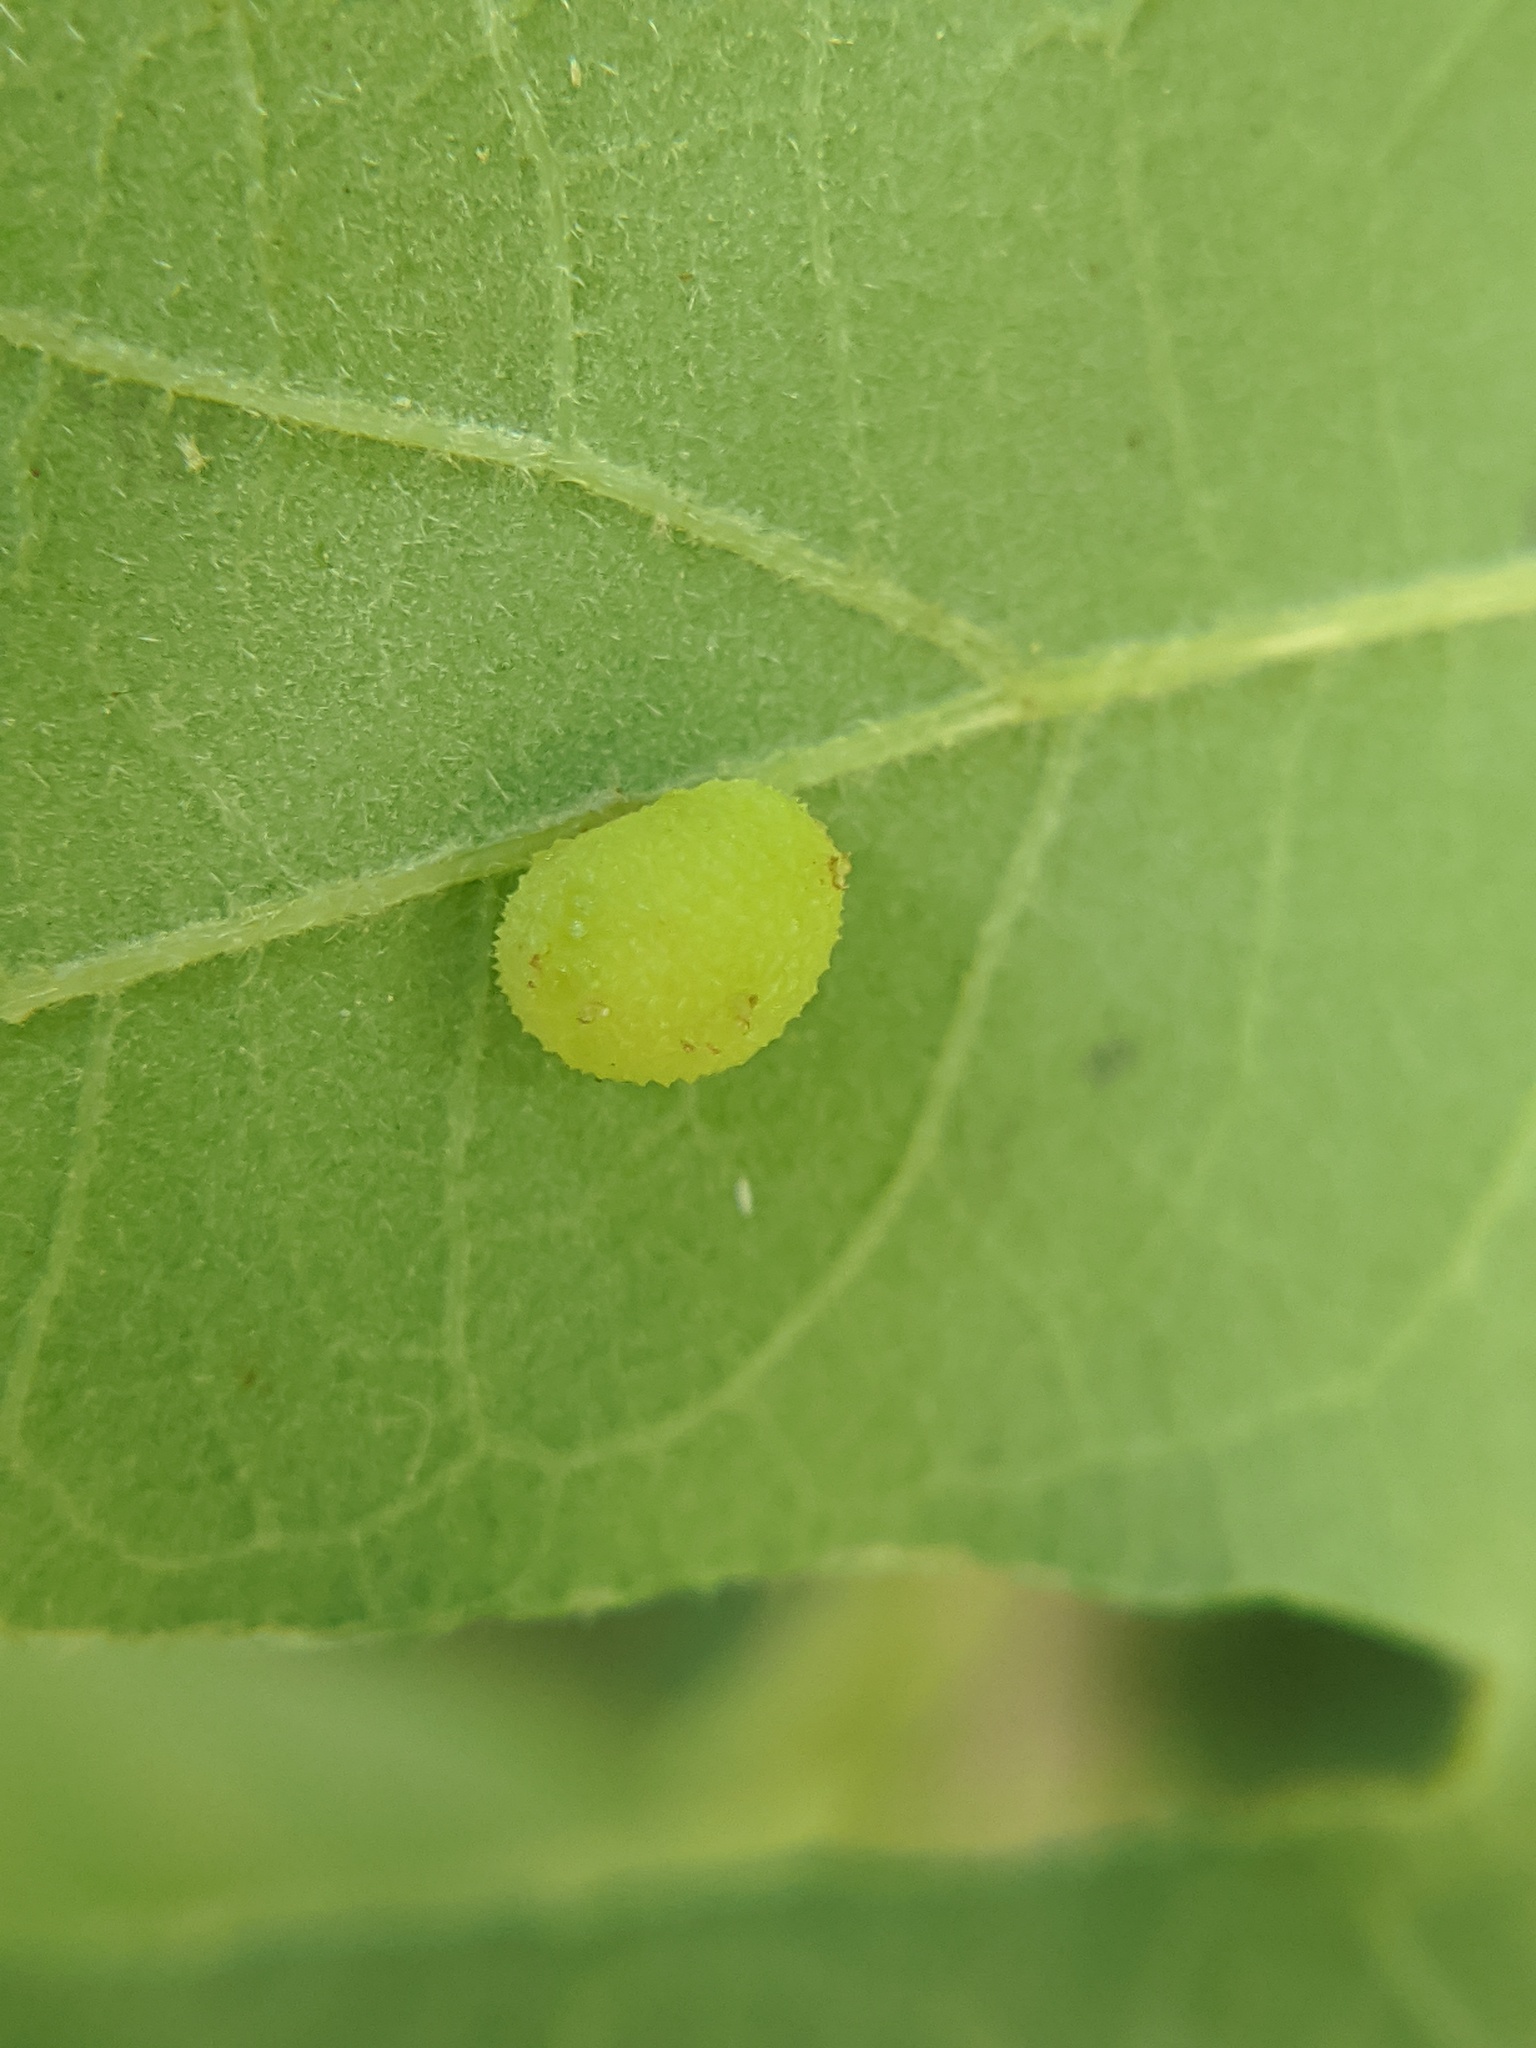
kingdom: Animalia
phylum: Arthropoda
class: Insecta
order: Hymenoptera
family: Cynipidae
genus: Acraspis
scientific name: Acraspis quercushirta
